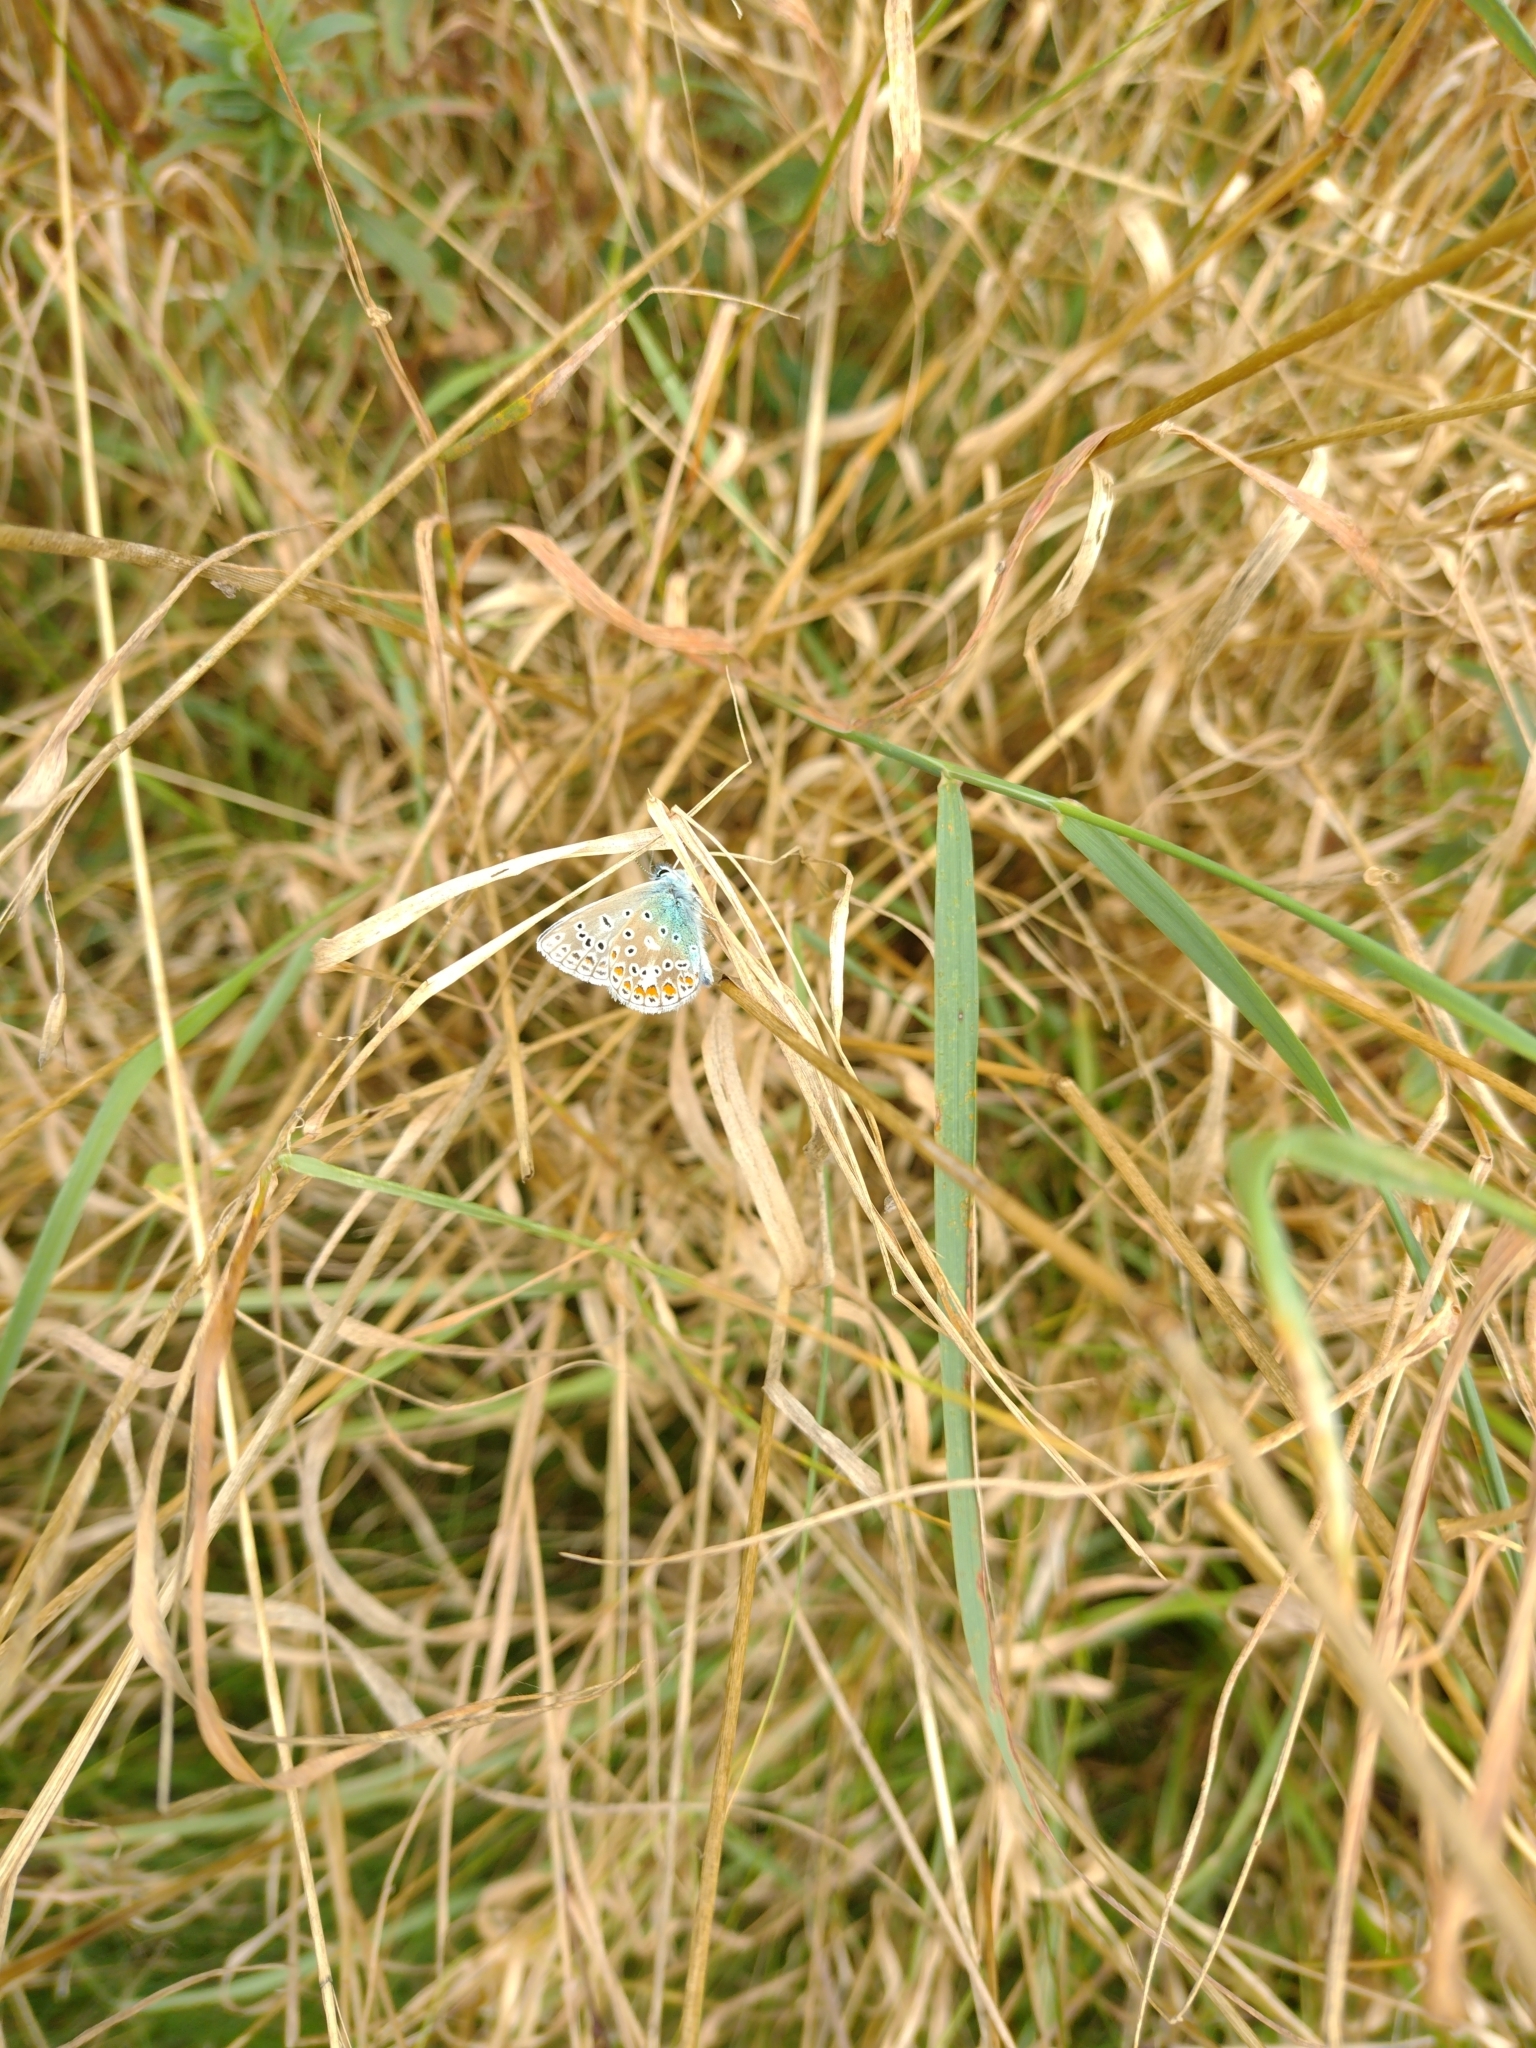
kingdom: Animalia
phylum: Arthropoda
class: Insecta
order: Lepidoptera
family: Lycaenidae
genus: Polyommatus
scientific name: Polyommatus icarus
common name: Common blue
